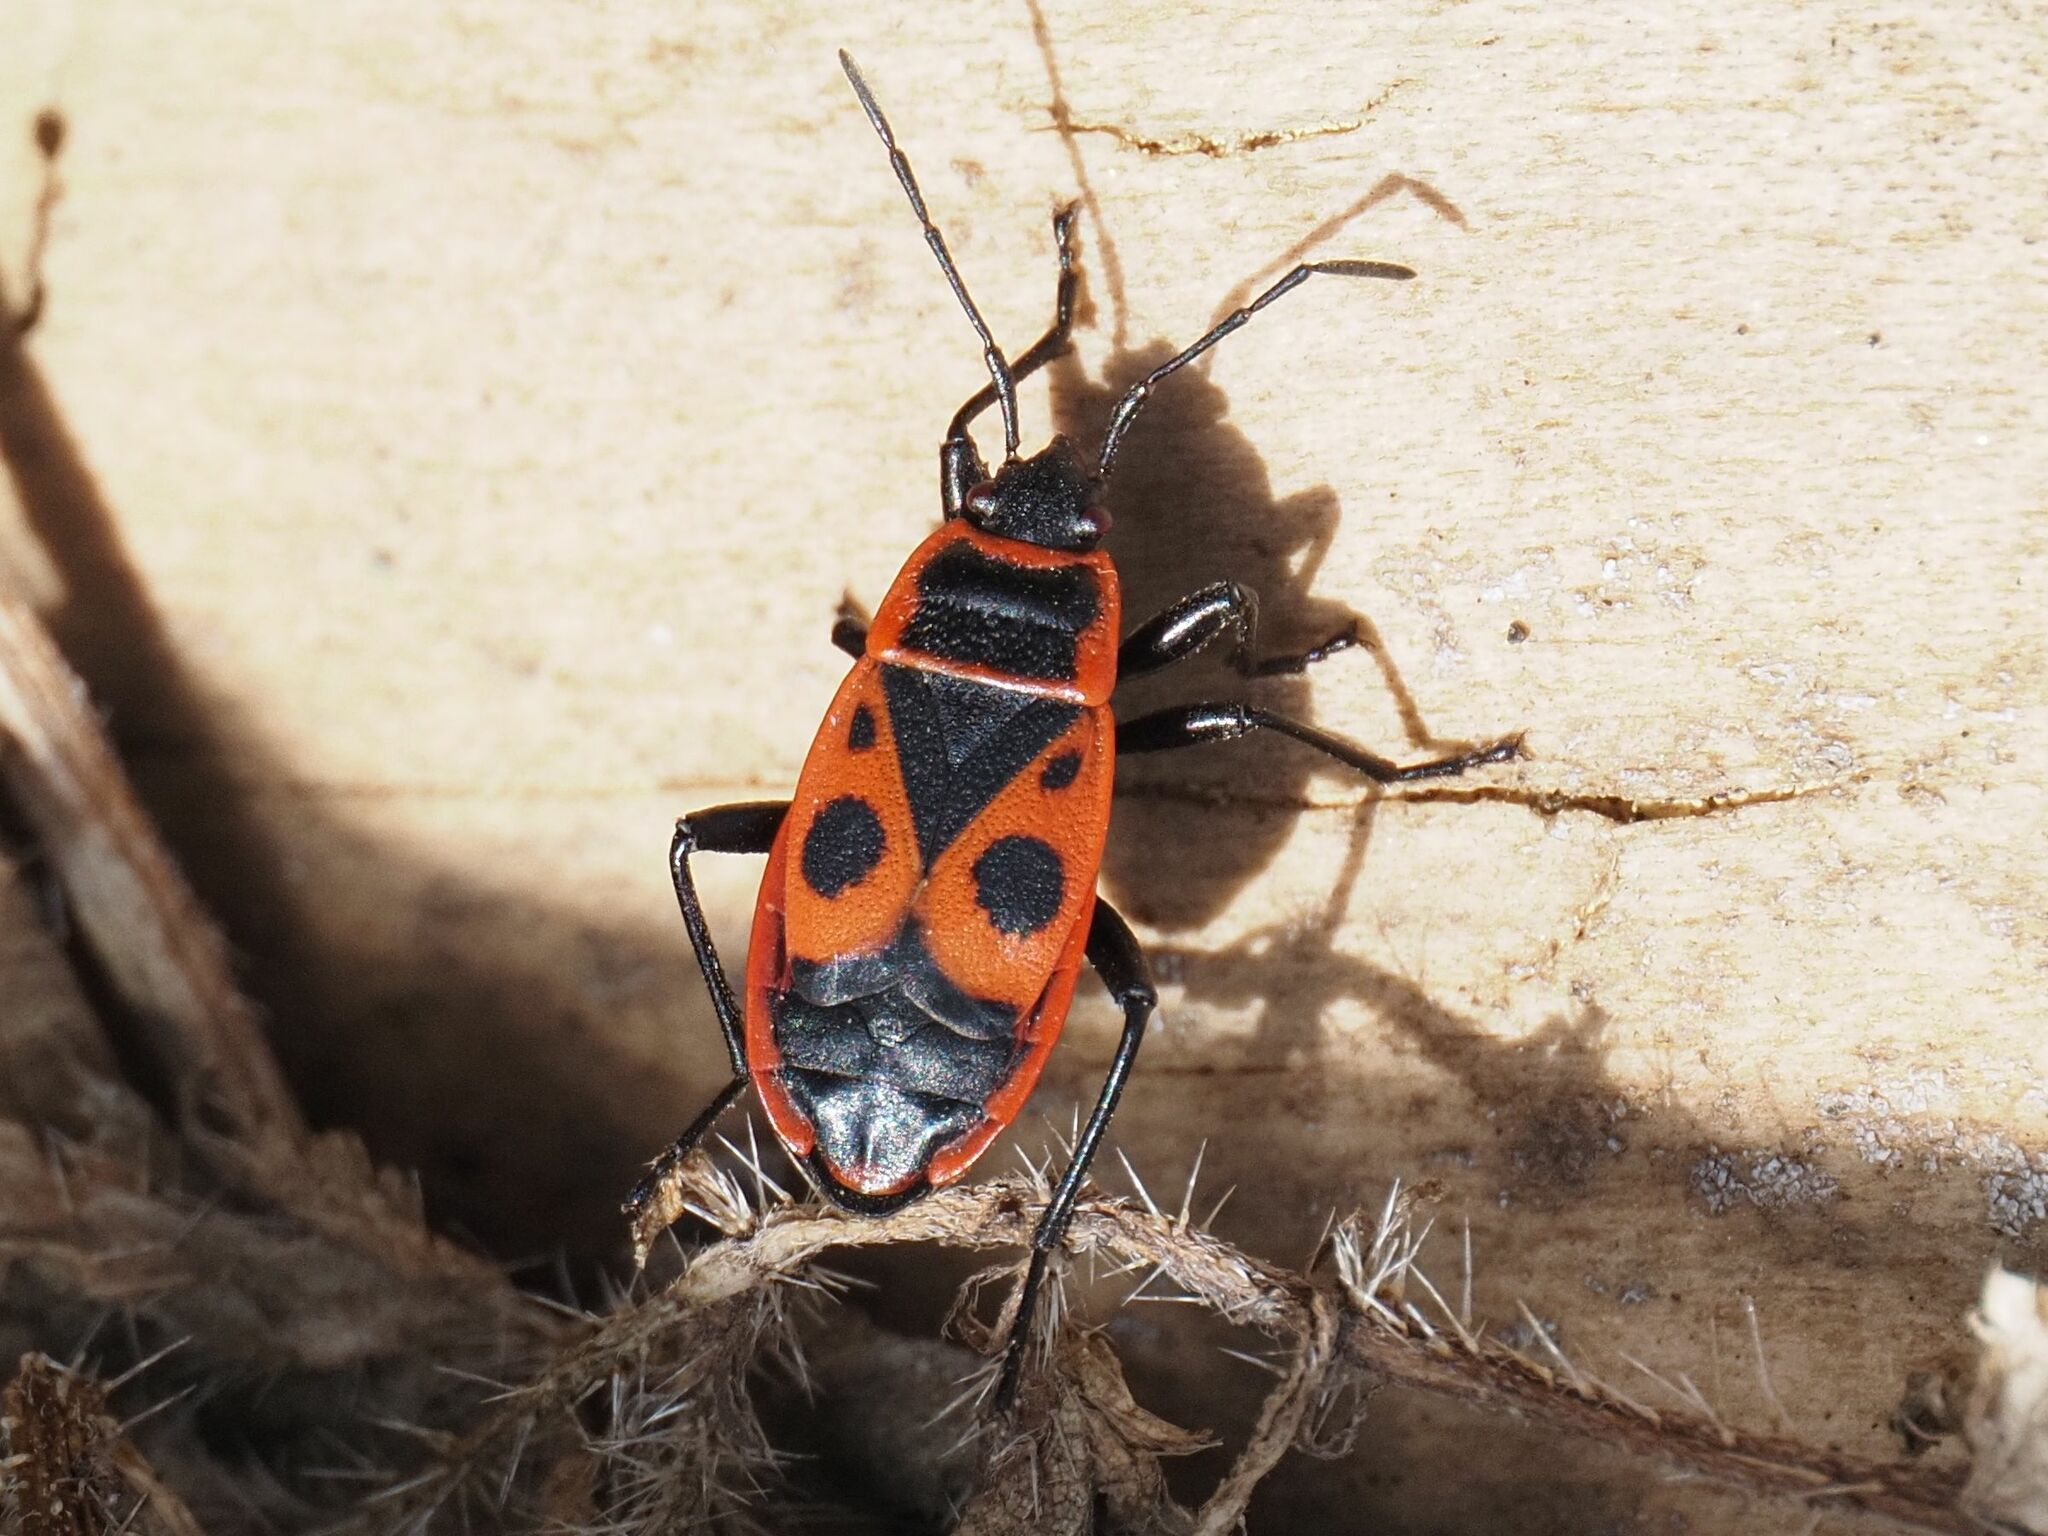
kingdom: Animalia
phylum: Arthropoda
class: Insecta
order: Hemiptera
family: Pyrrhocoridae
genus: Pyrrhocoris
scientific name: Pyrrhocoris apterus
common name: Firebug
